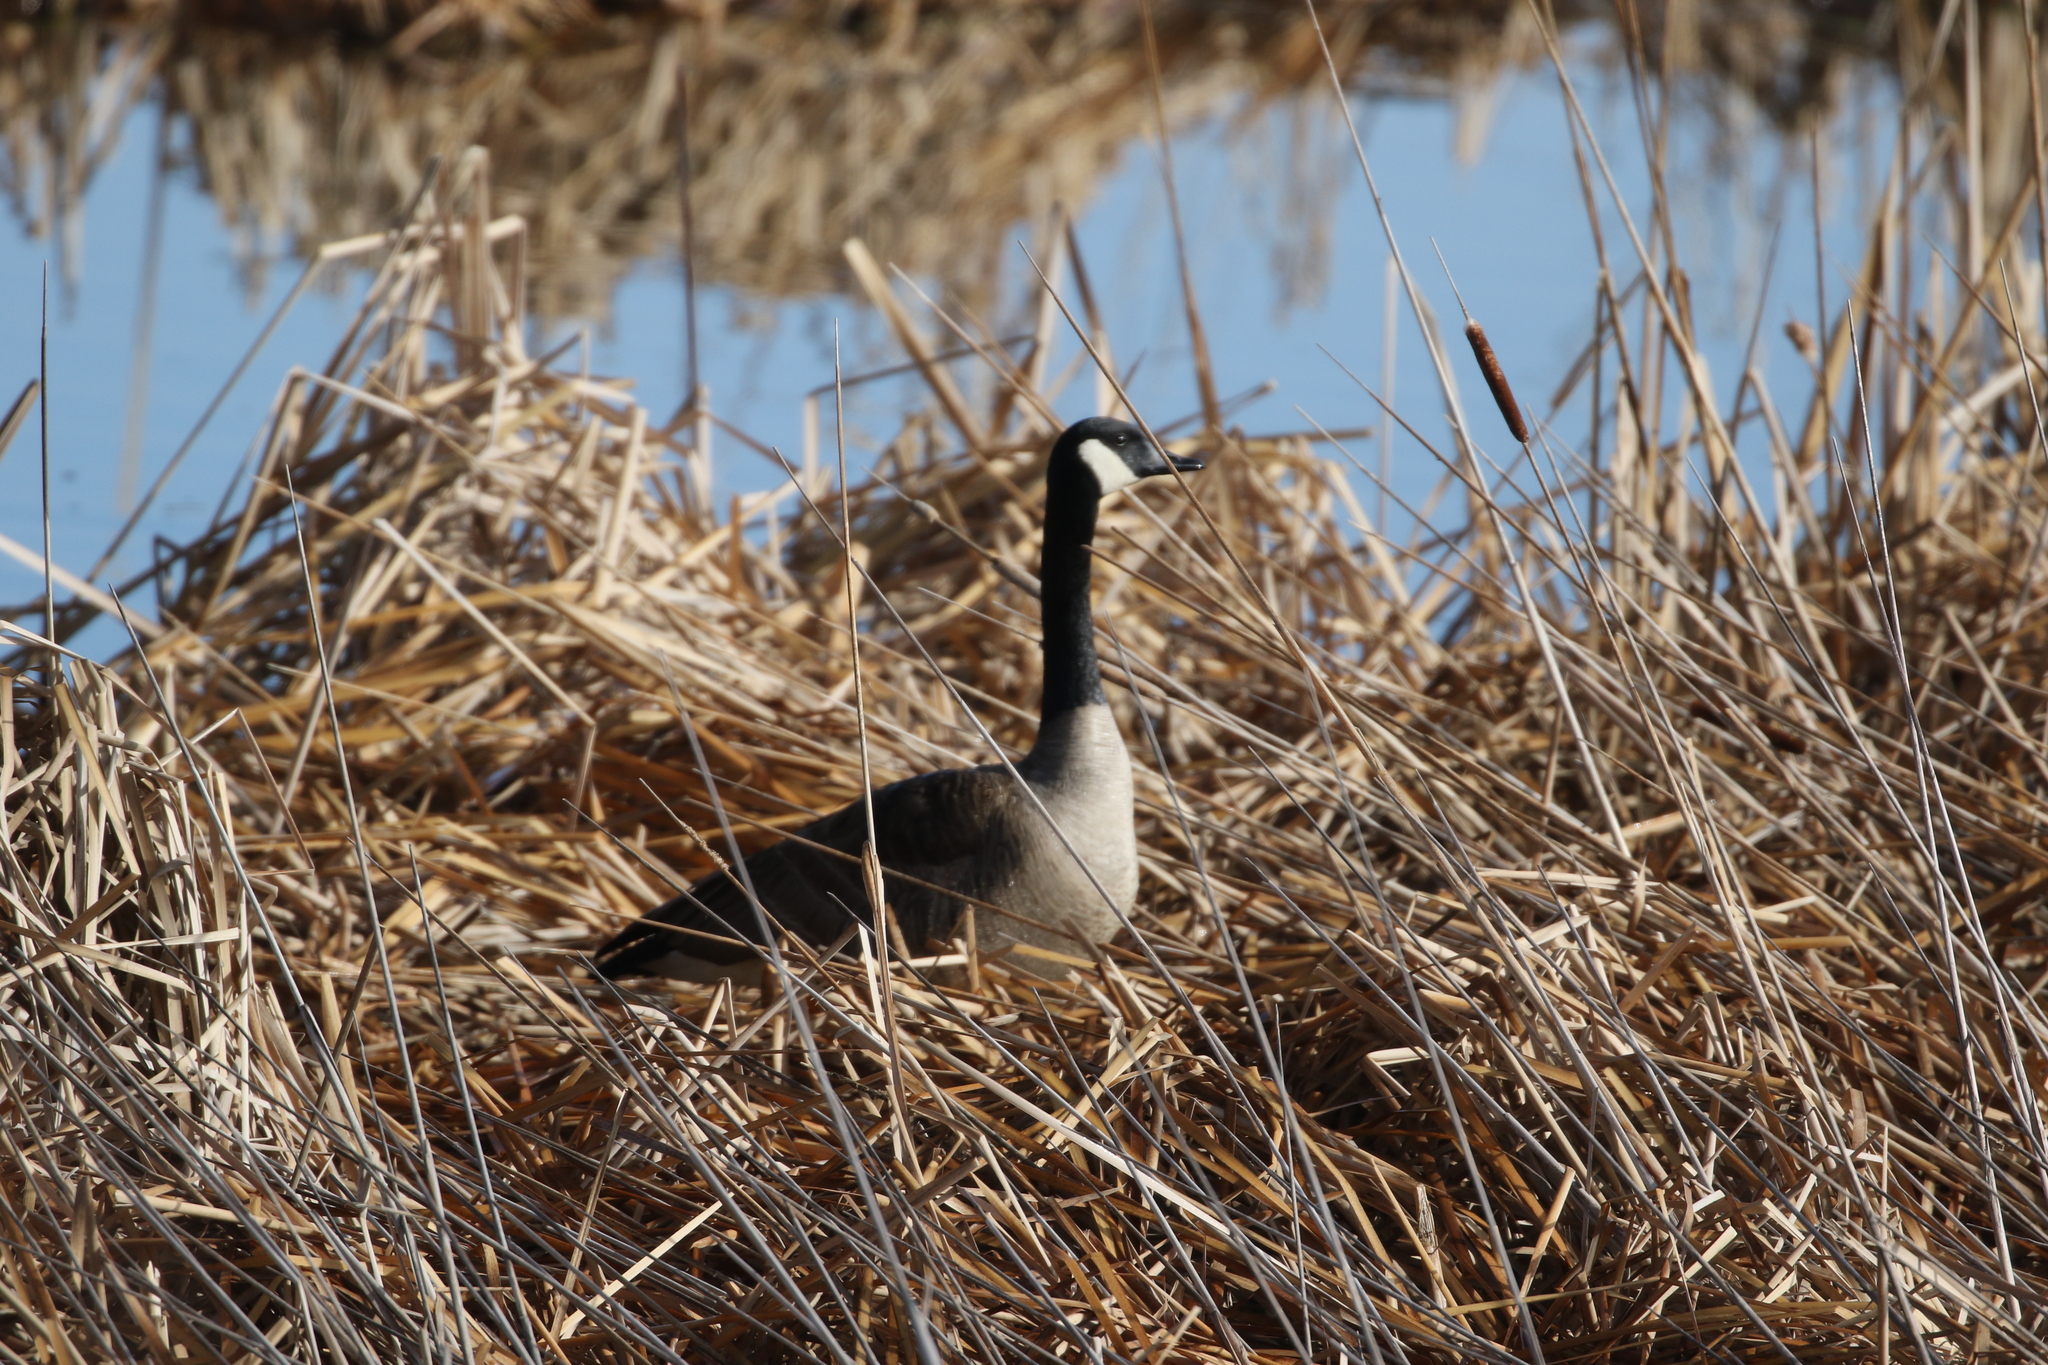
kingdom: Animalia
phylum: Chordata
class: Aves
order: Anseriformes
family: Anatidae
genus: Branta
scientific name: Branta canadensis
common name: Canada goose
